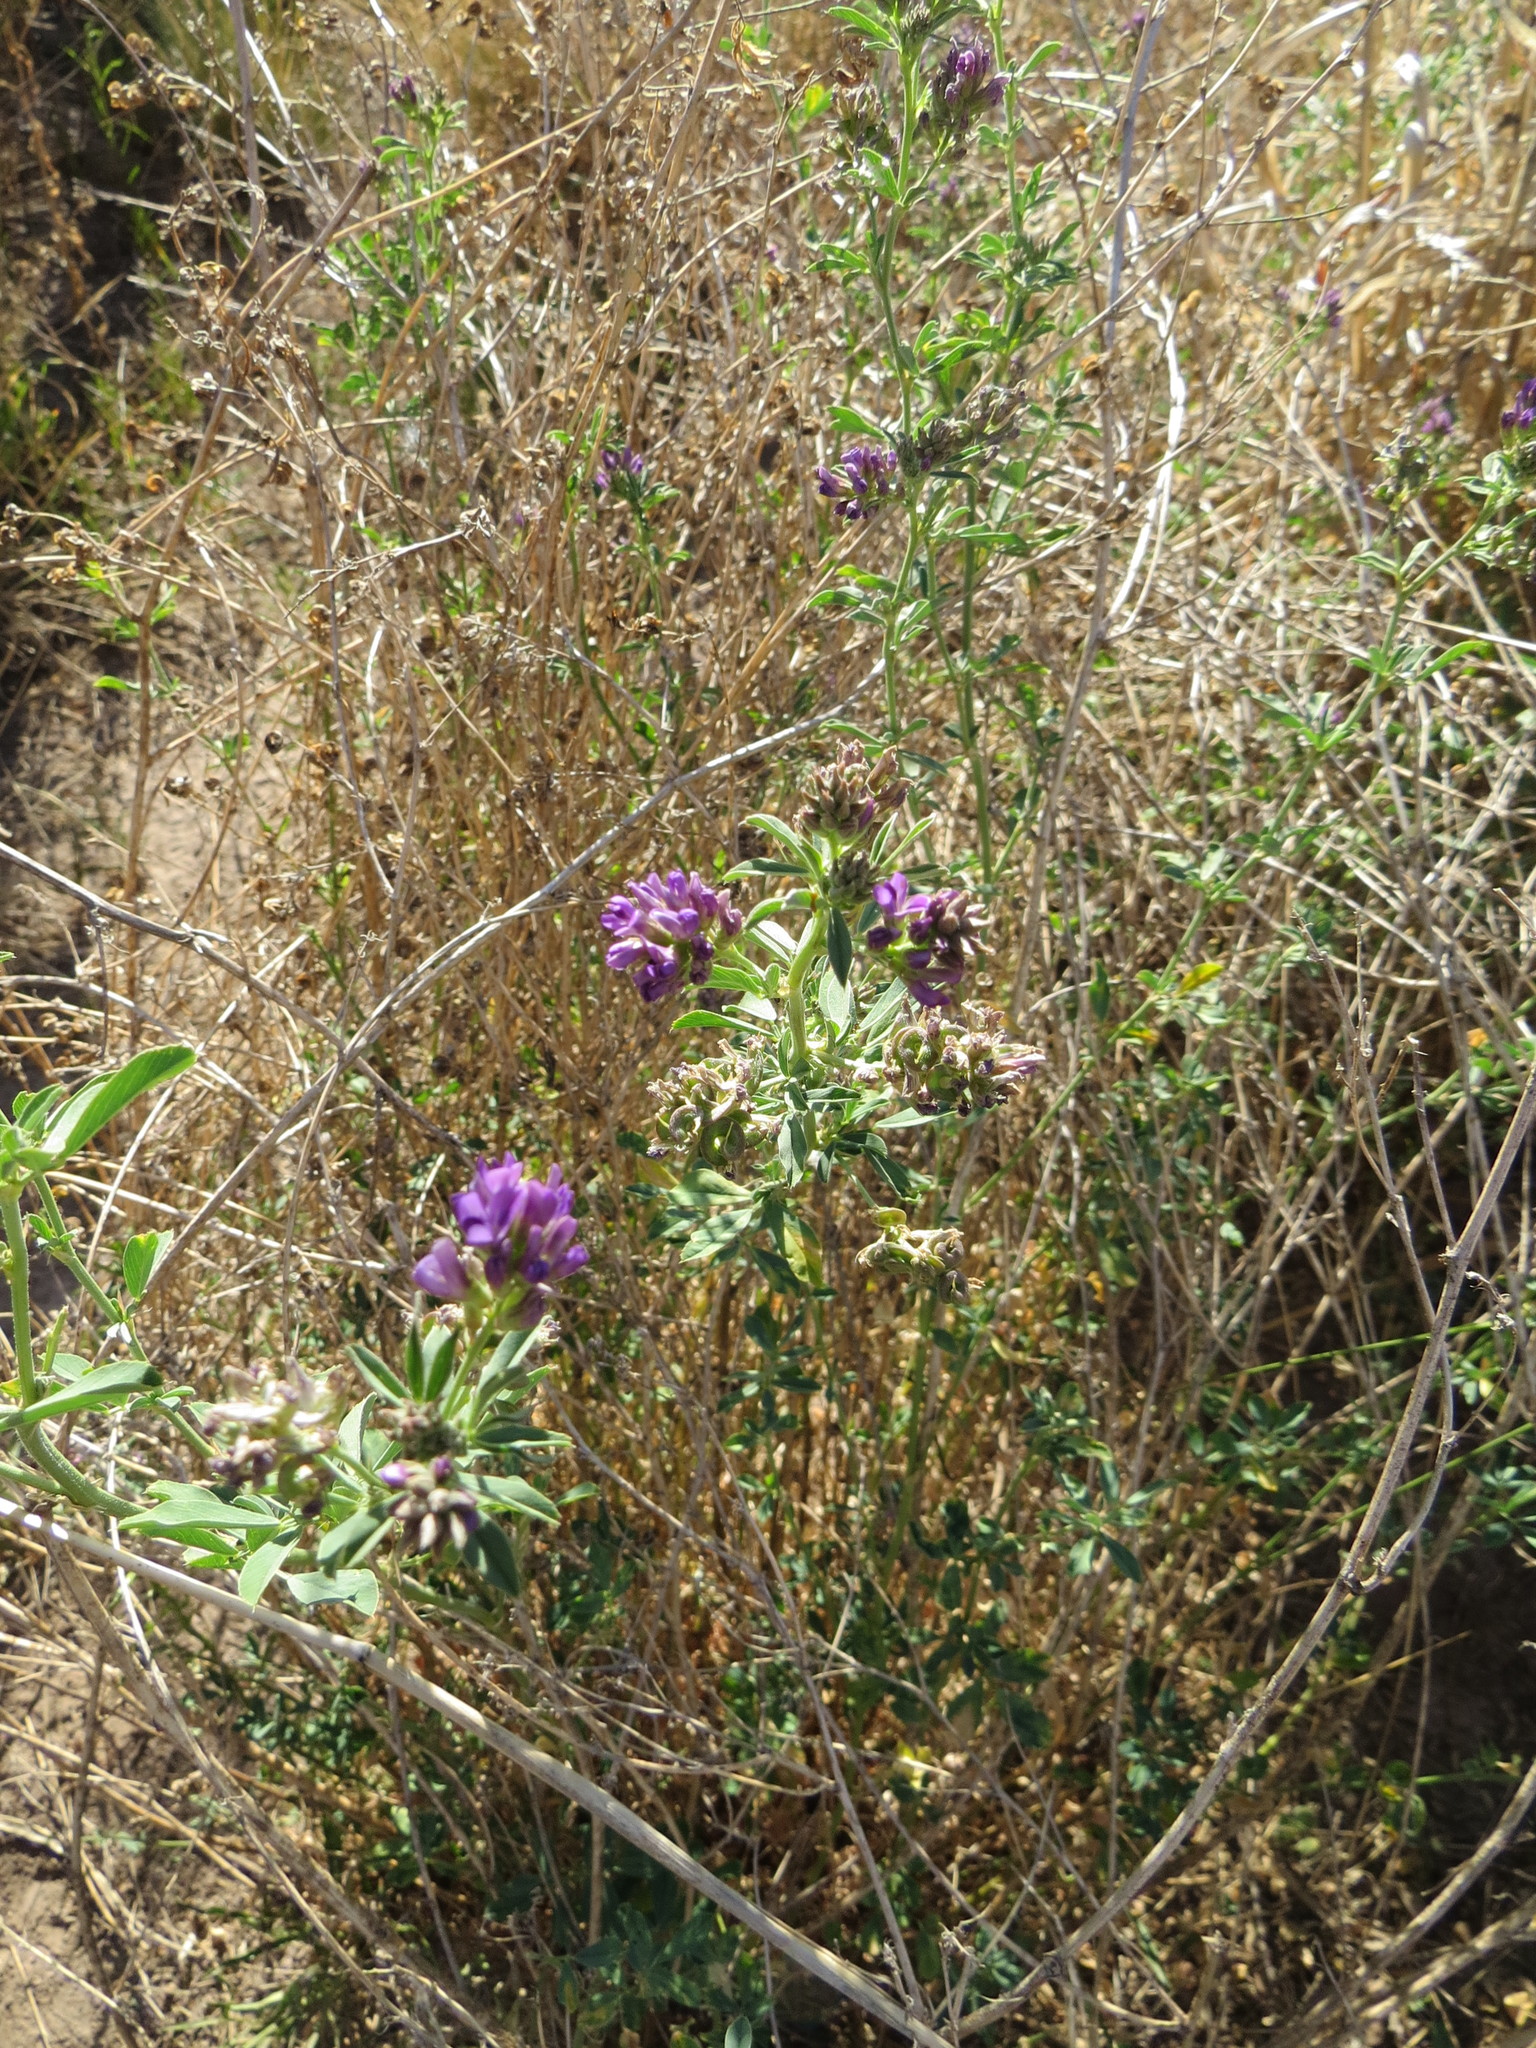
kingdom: Plantae
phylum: Tracheophyta
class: Magnoliopsida
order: Fabales
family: Fabaceae
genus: Medicago
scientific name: Medicago sativa
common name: Alfalfa
